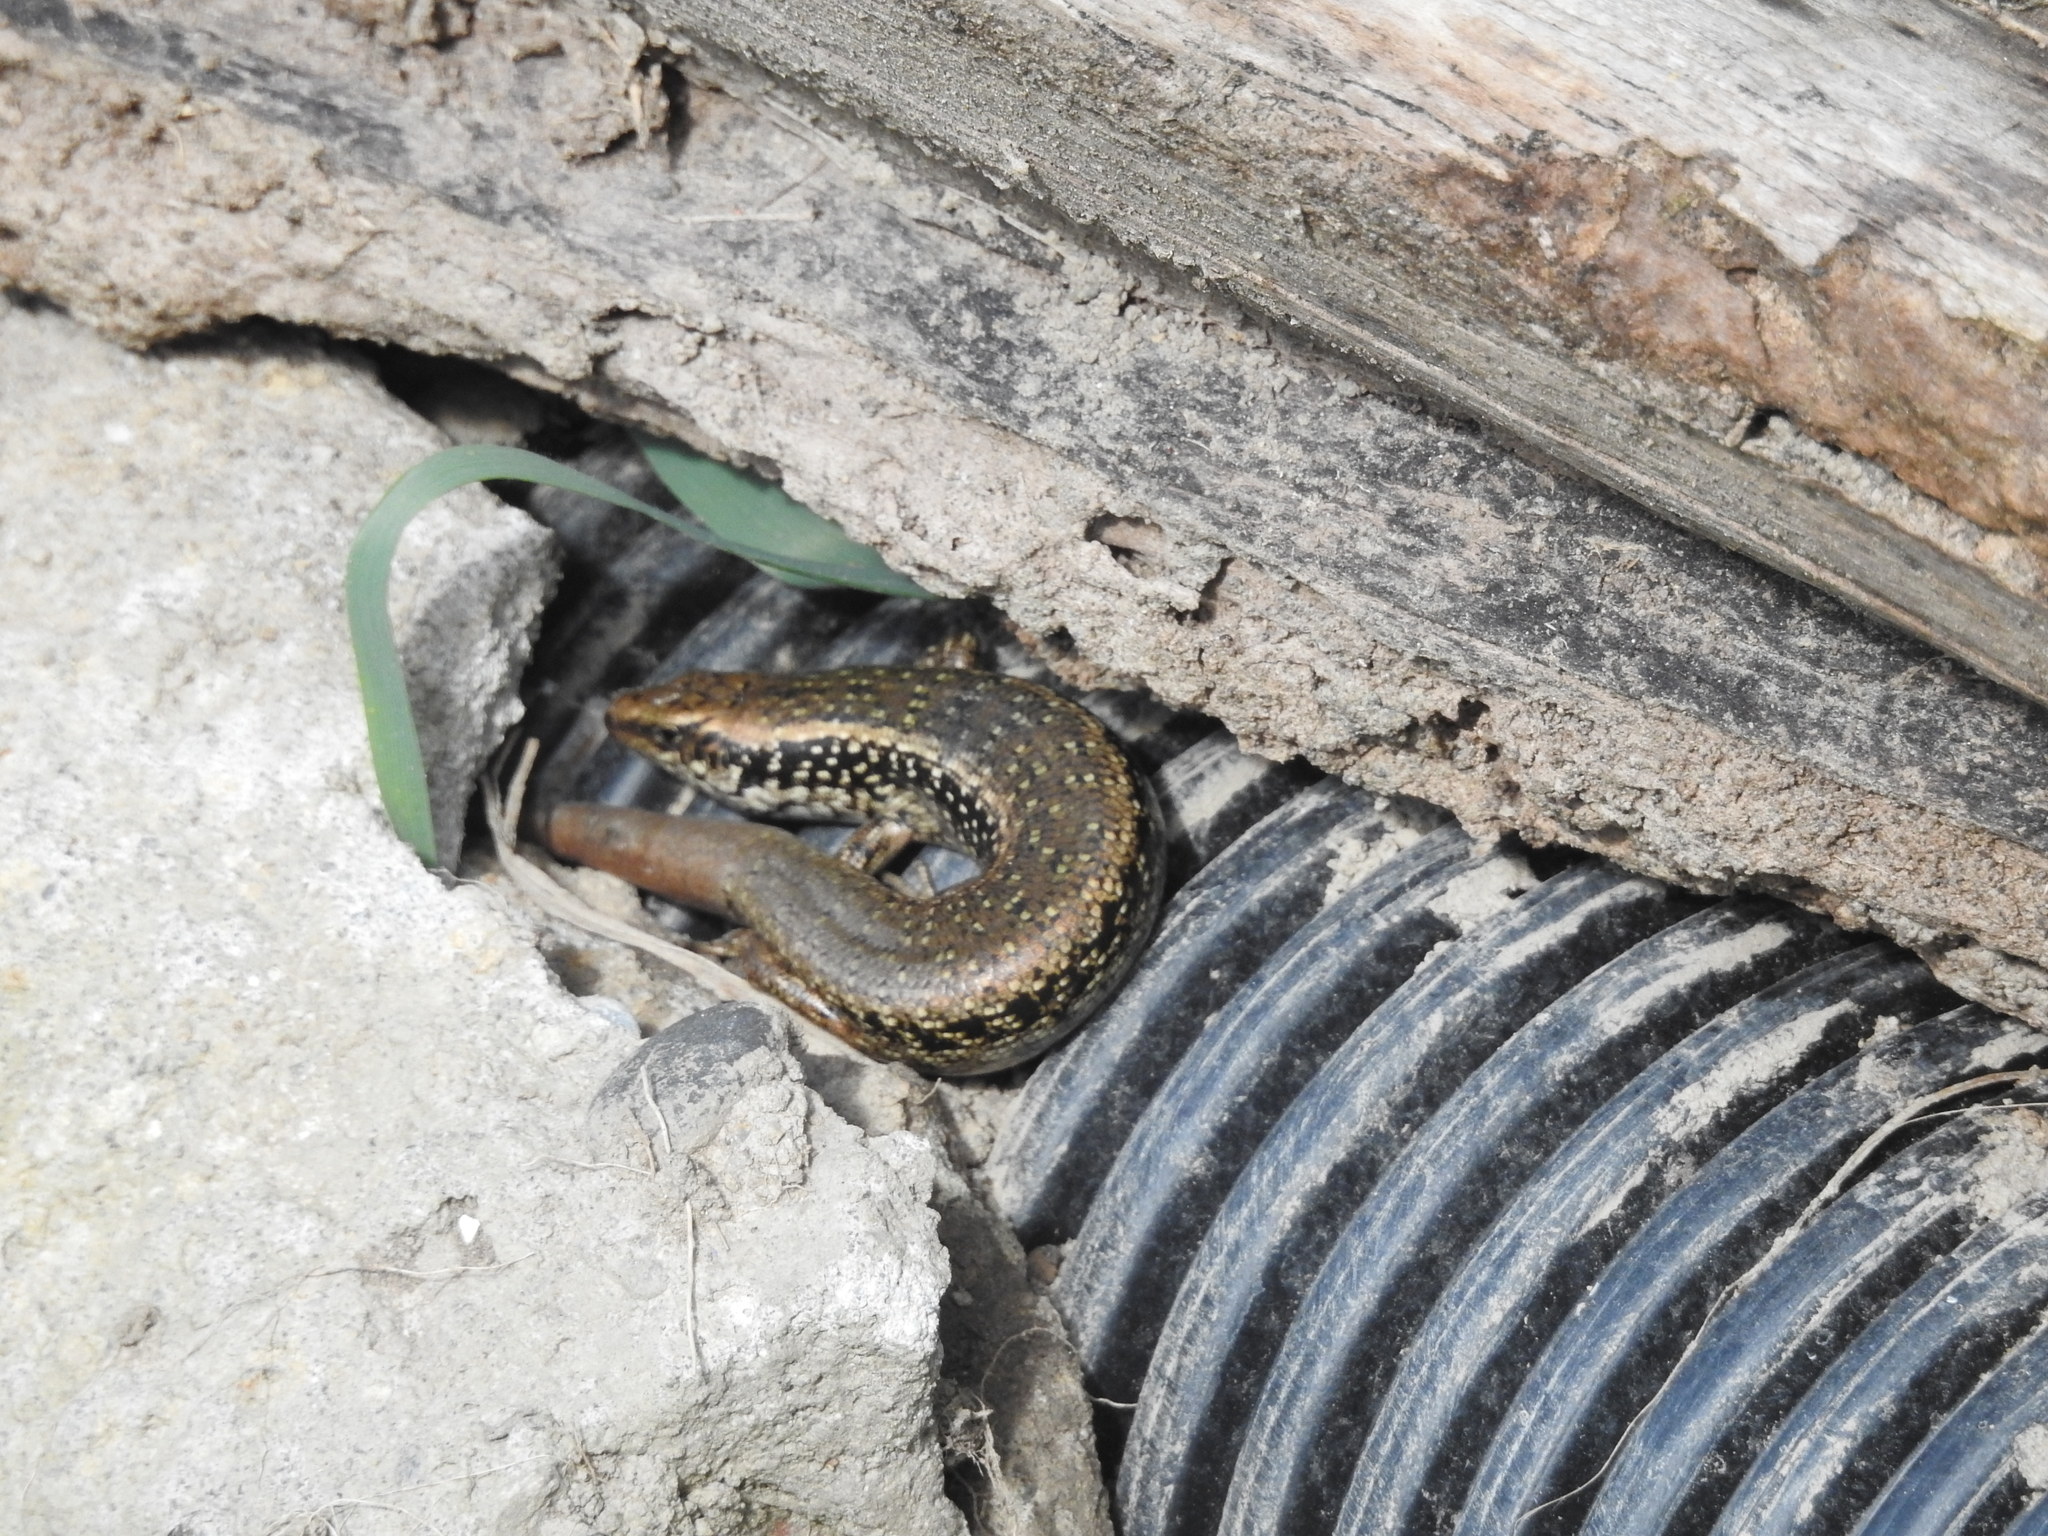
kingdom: Animalia
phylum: Chordata
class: Squamata
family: Scincidae
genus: Oligosoma
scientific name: Oligosoma kokowai
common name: Northern spotted skink
